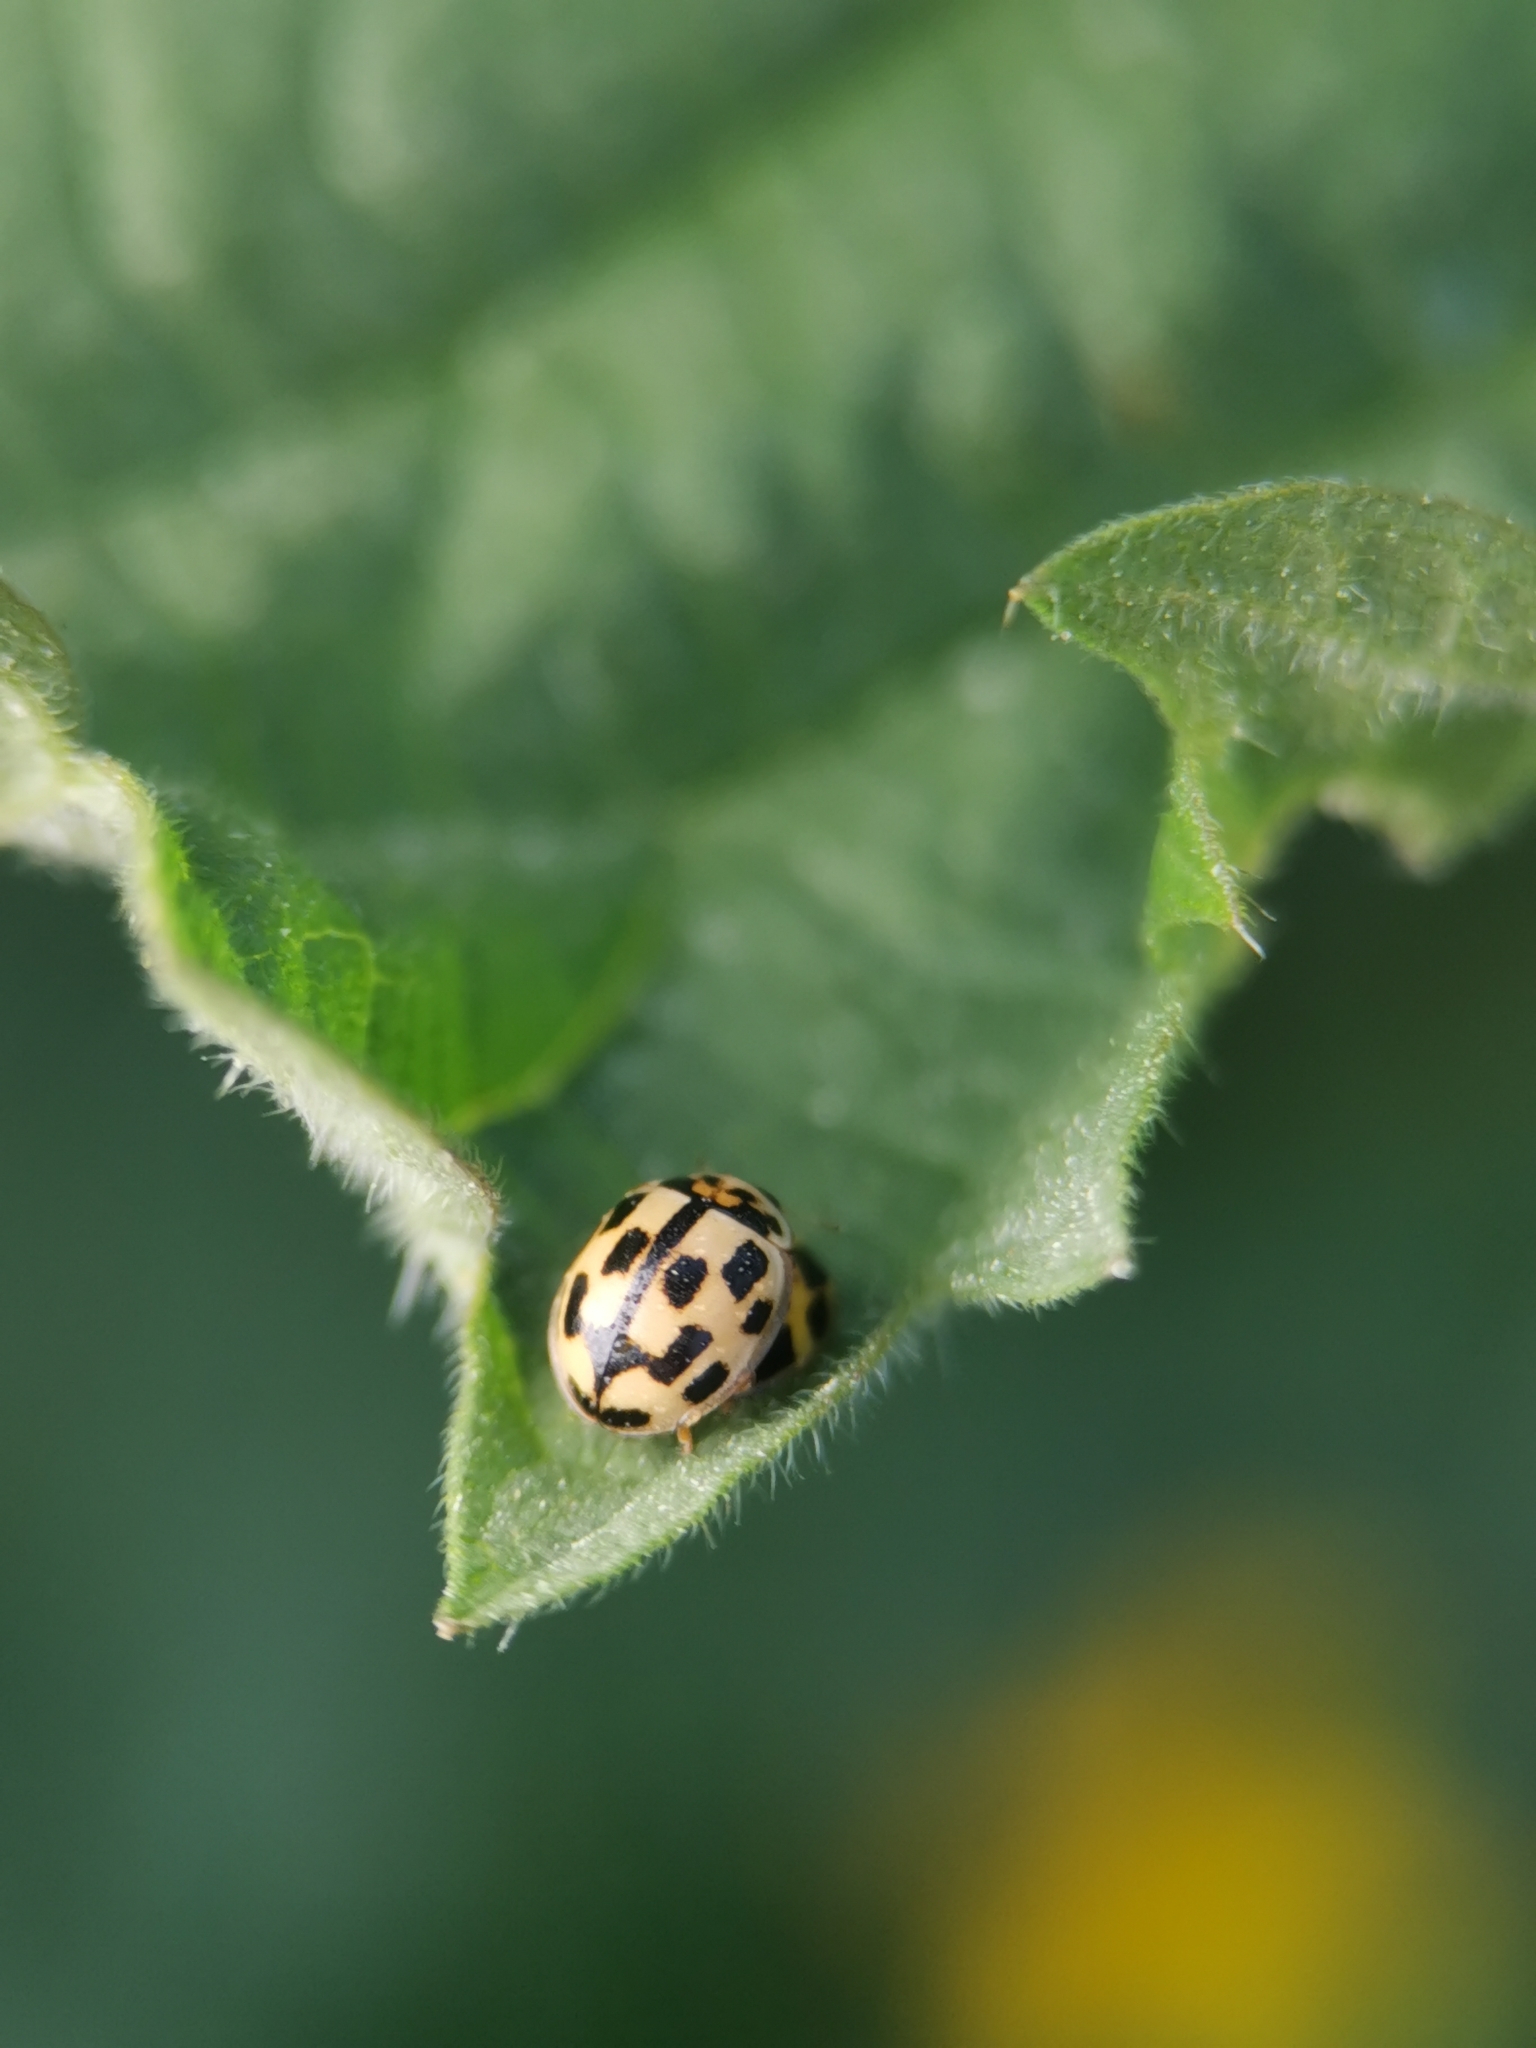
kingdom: Animalia
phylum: Arthropoda
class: Insecta
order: Coleoptera
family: Coccinellidae
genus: Propylaea
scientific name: Propylaea quatuordecimpunctata
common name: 14-spotted ladybird beetle
